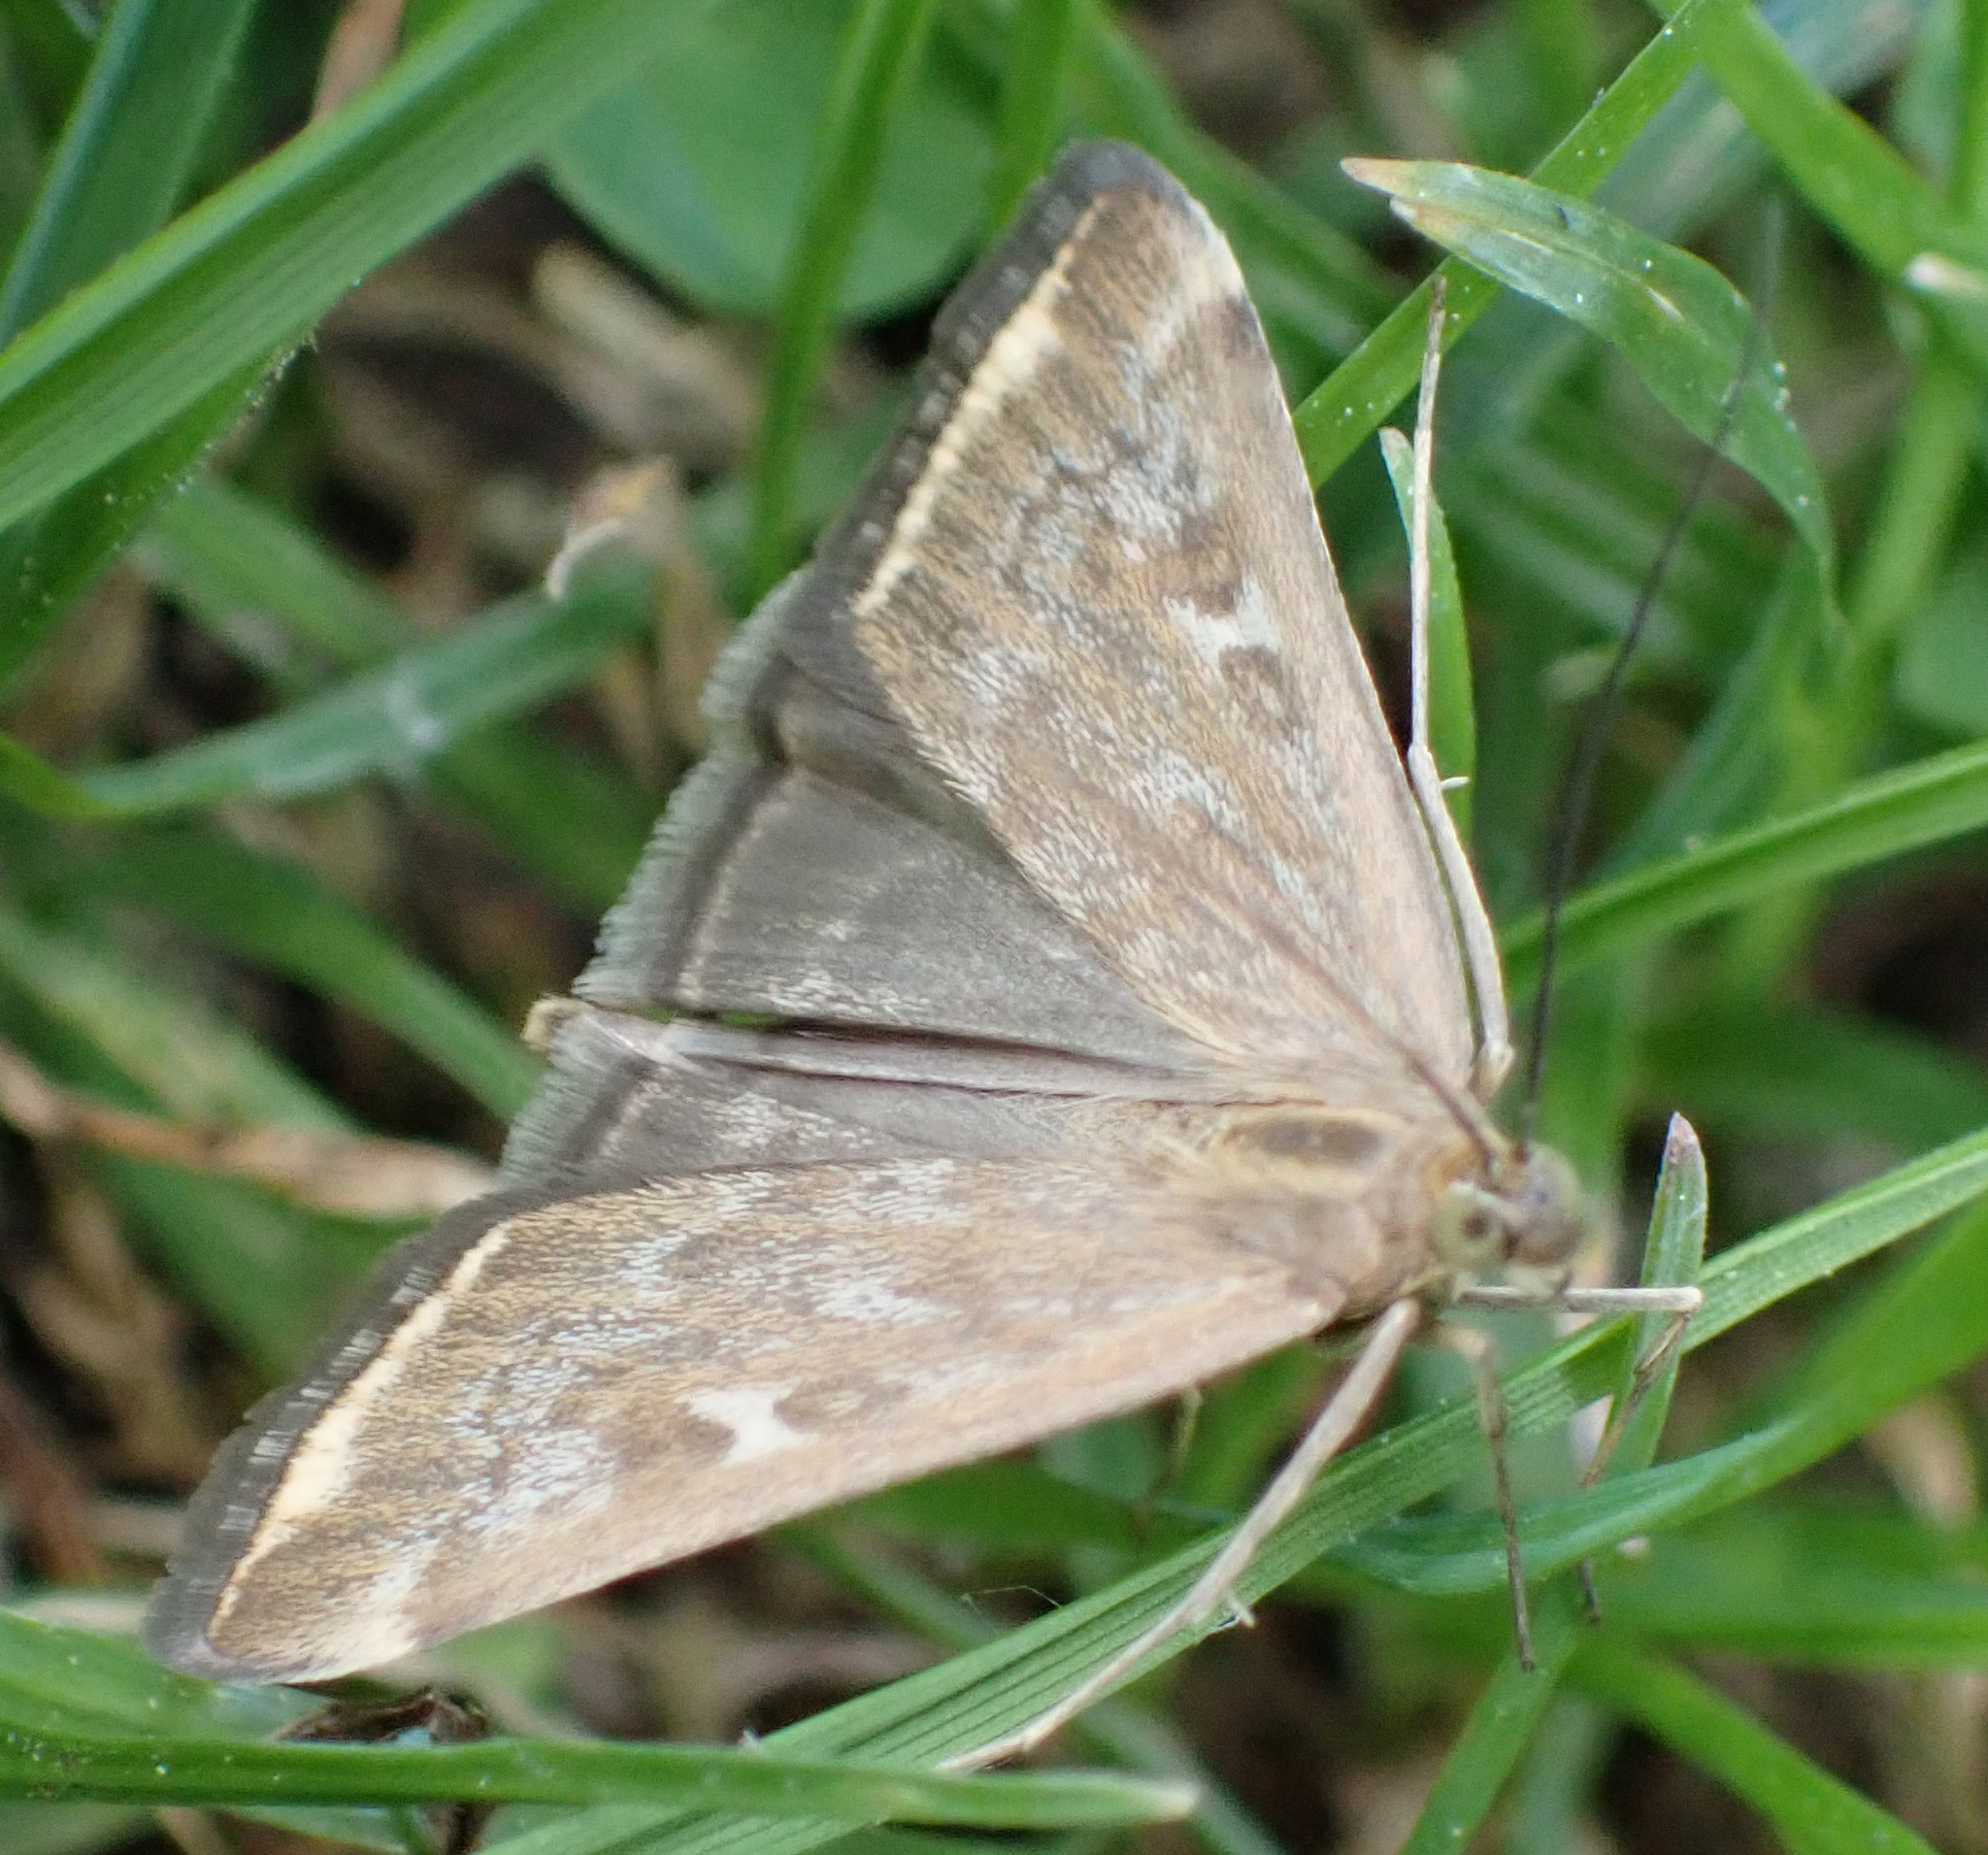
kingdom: Animalia
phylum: Arthropoda
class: Insecta
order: Lepidoptera
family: Crambidae
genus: Loxostege
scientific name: Loxostege sticticalis
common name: Crambid moth
